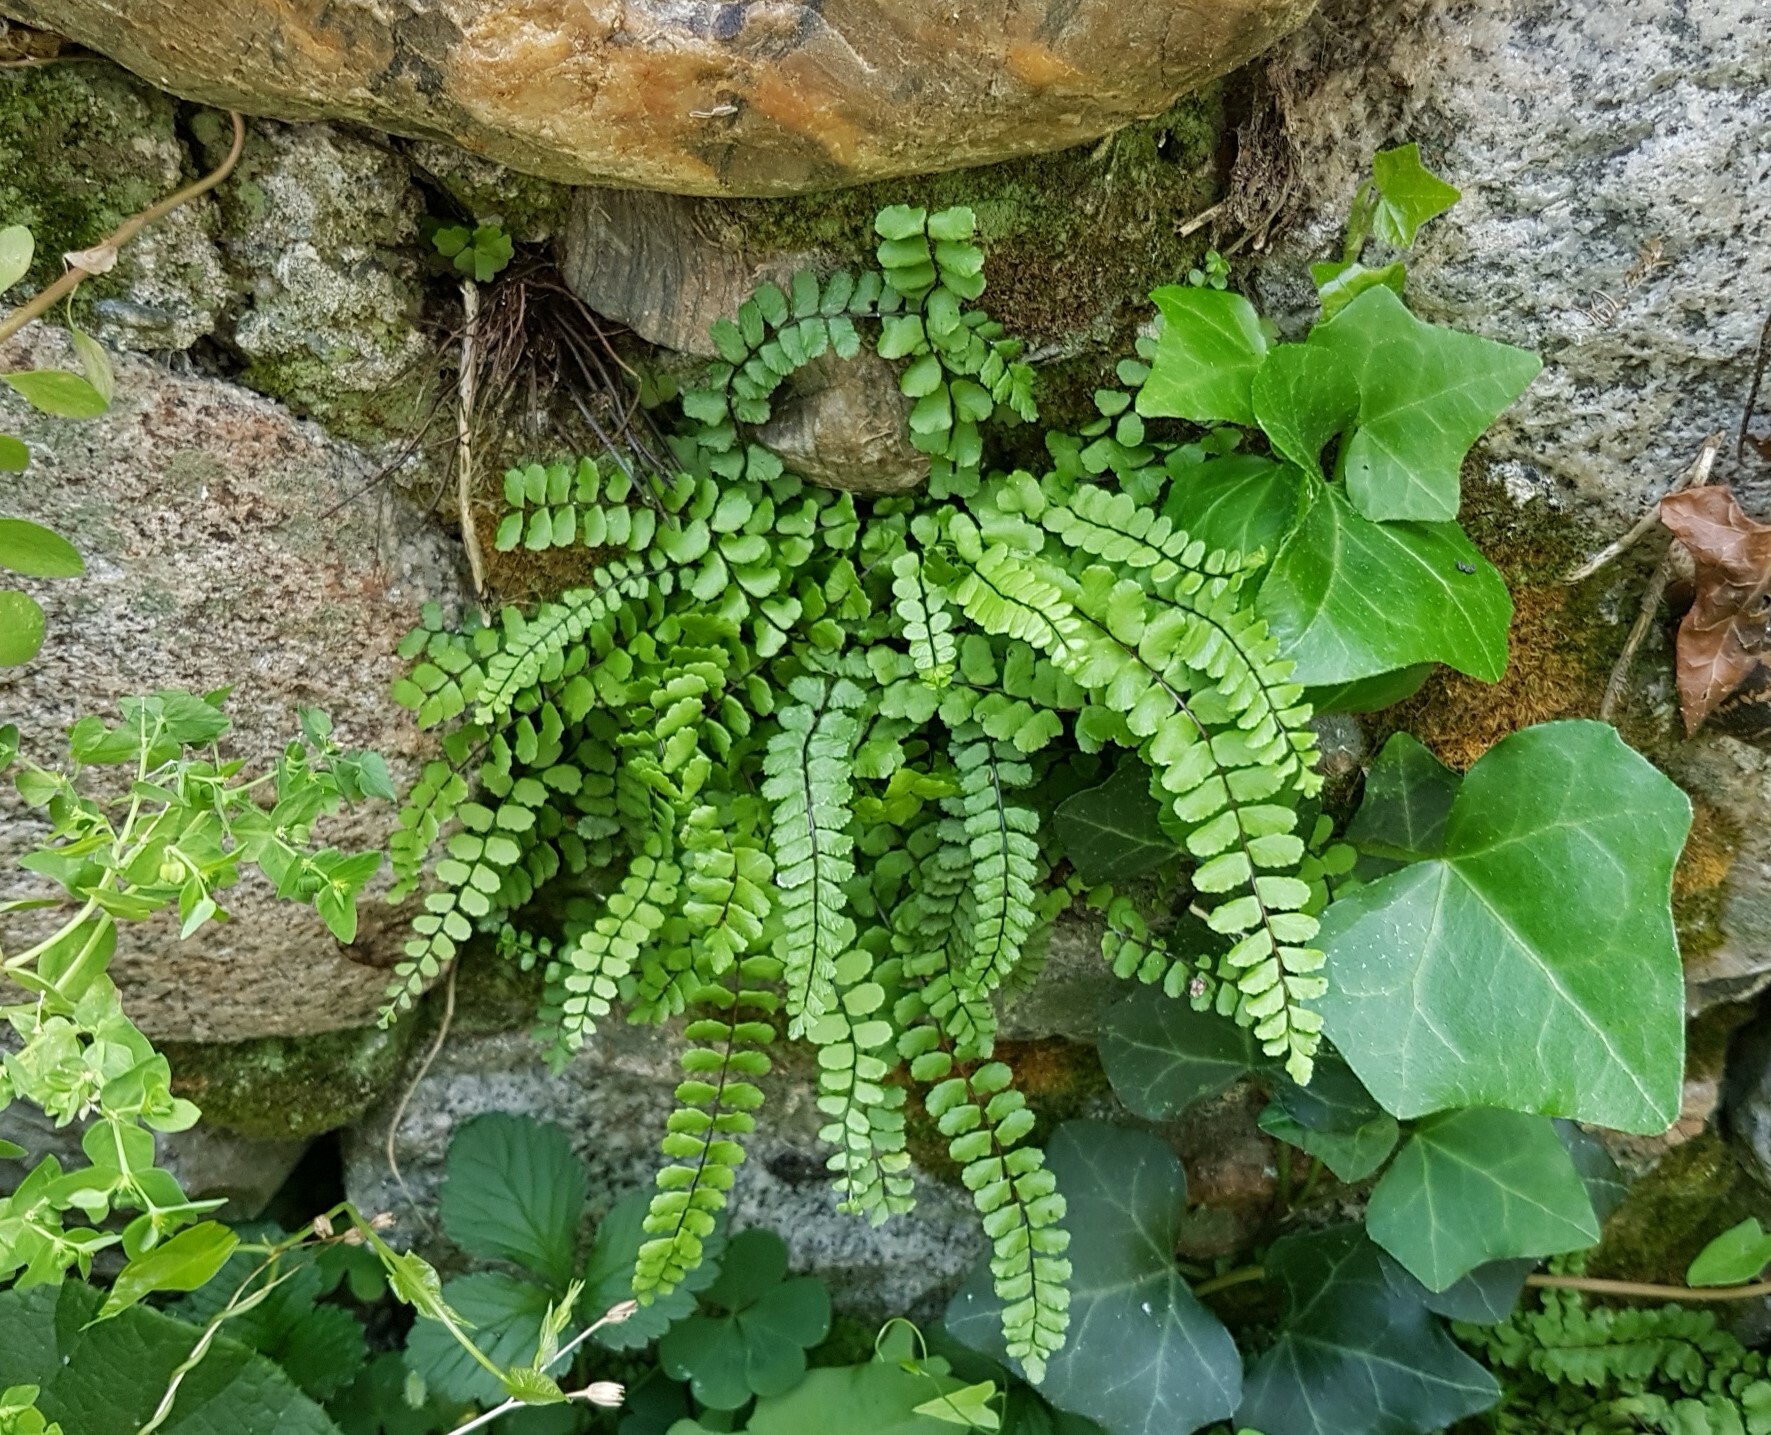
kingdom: Plantae
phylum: Tracheophyta
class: Polypodiopsida
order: Polypodiales
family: Aspleniaceae
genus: Asplenium
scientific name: Asplenium trichomanes
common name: Maidenhair spleenwort
